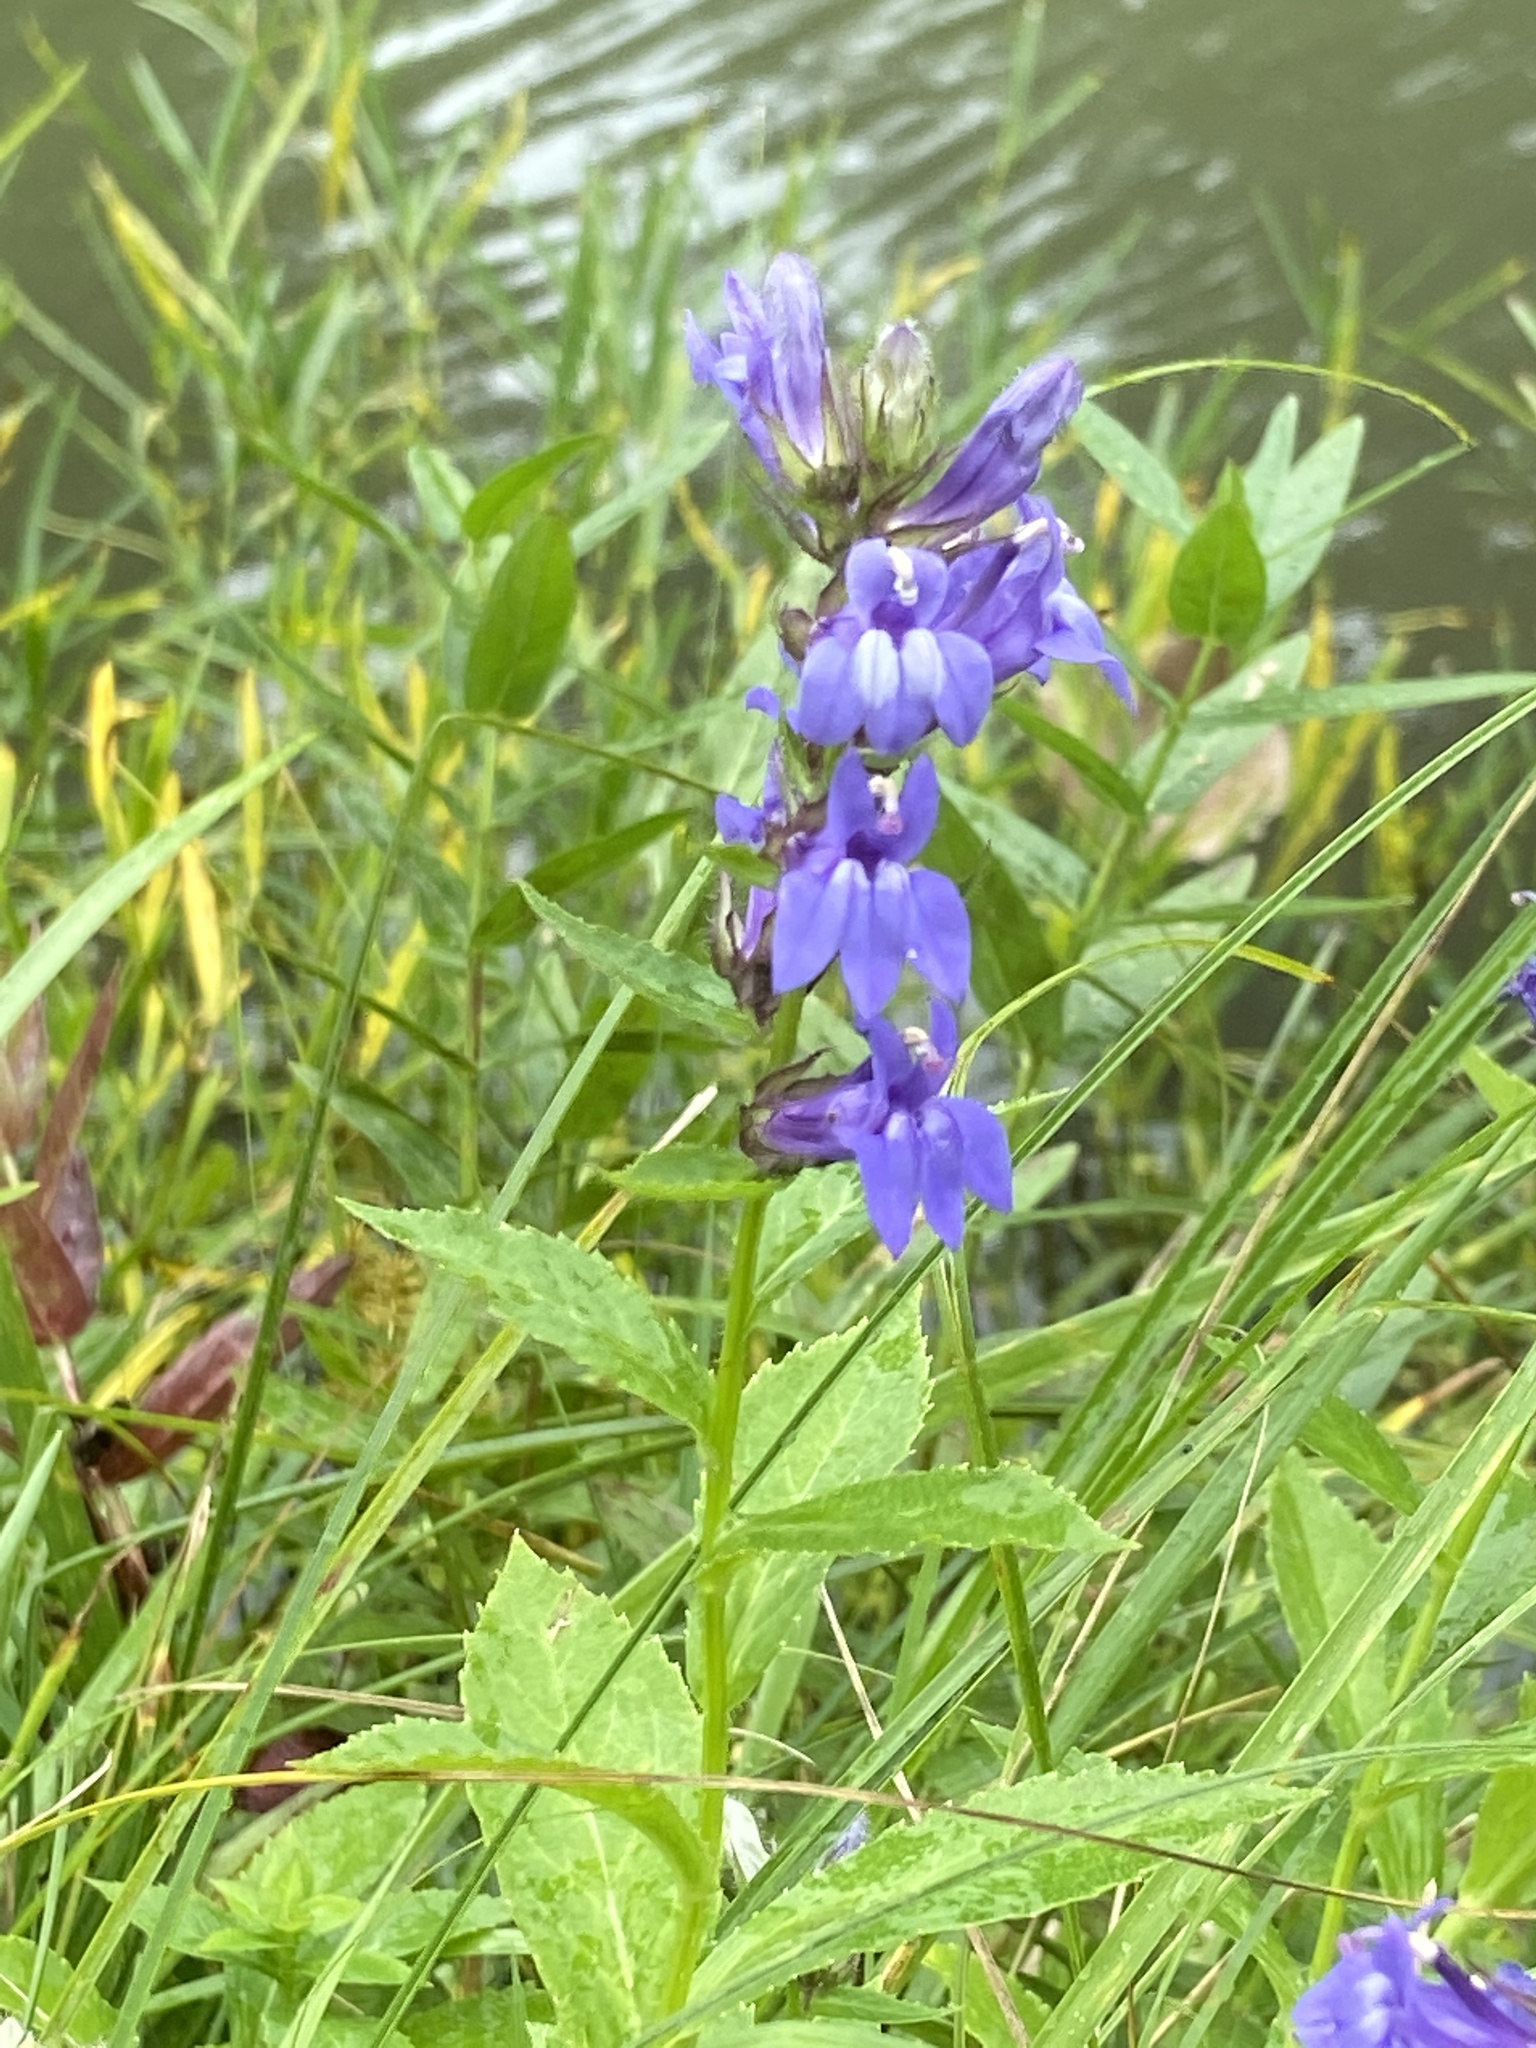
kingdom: Plantae
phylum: Tracheophyta
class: Magnoliopsida
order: Asterales
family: Campanulaceae
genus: Lobelia
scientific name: Lobelia siphilitica
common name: Great lobelia
